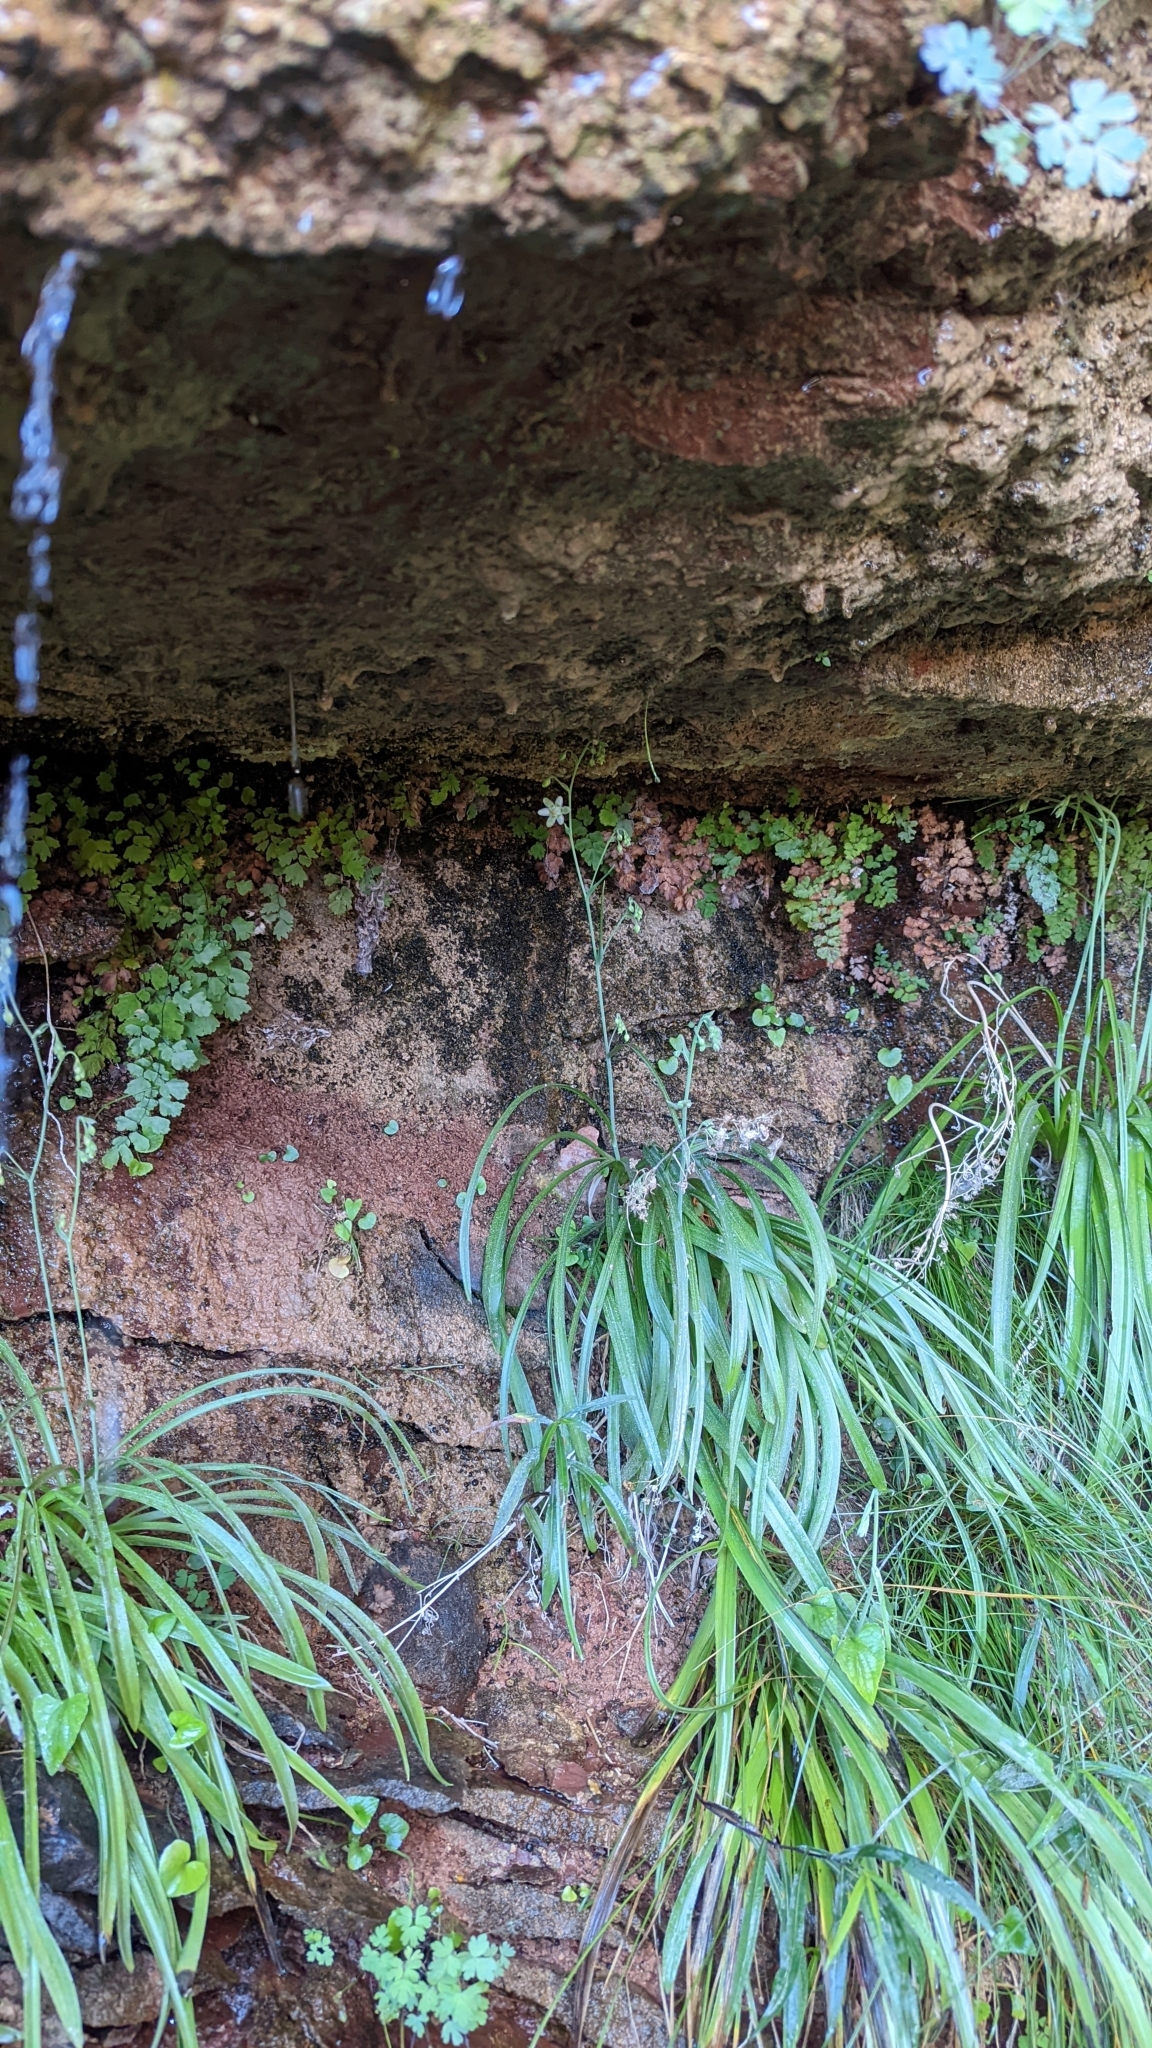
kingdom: Plantae
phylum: Tracheophyta
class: Liliopsida
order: Liliales
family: Melanthiaceae
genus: Anticlea
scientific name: Anticlea elegans
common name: Mountain death camas
